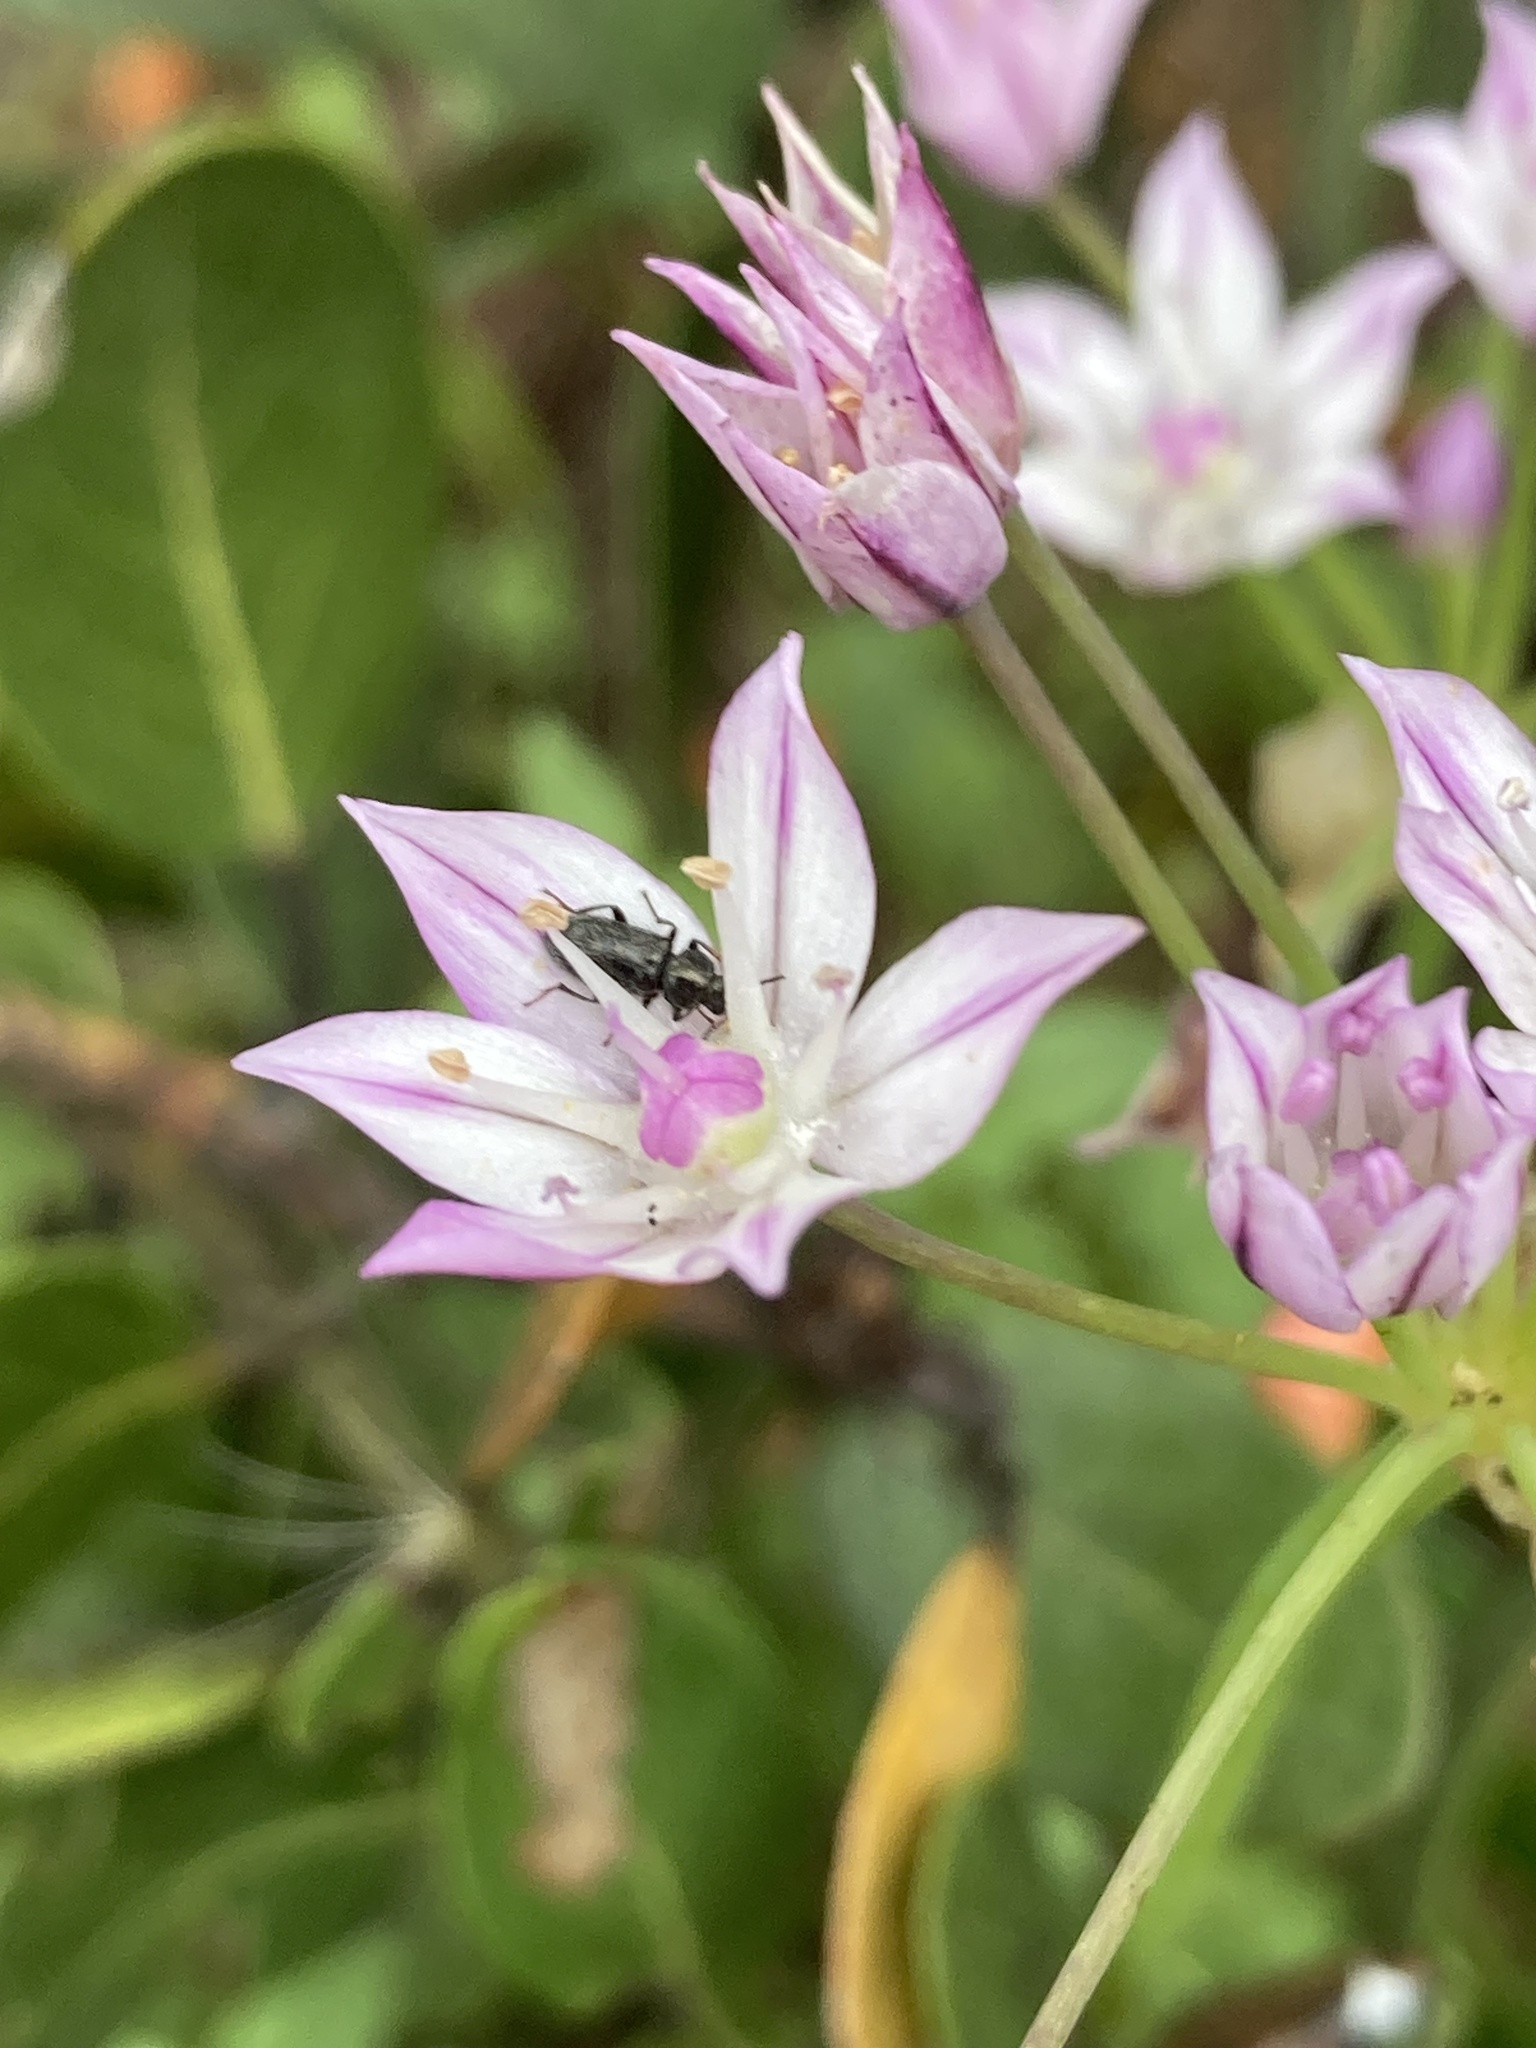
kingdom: Plantae
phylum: Tracheophyta
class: Liliopsida
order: Asparagales
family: Amaryllidaceae
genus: Allium
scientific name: Allium praecox
